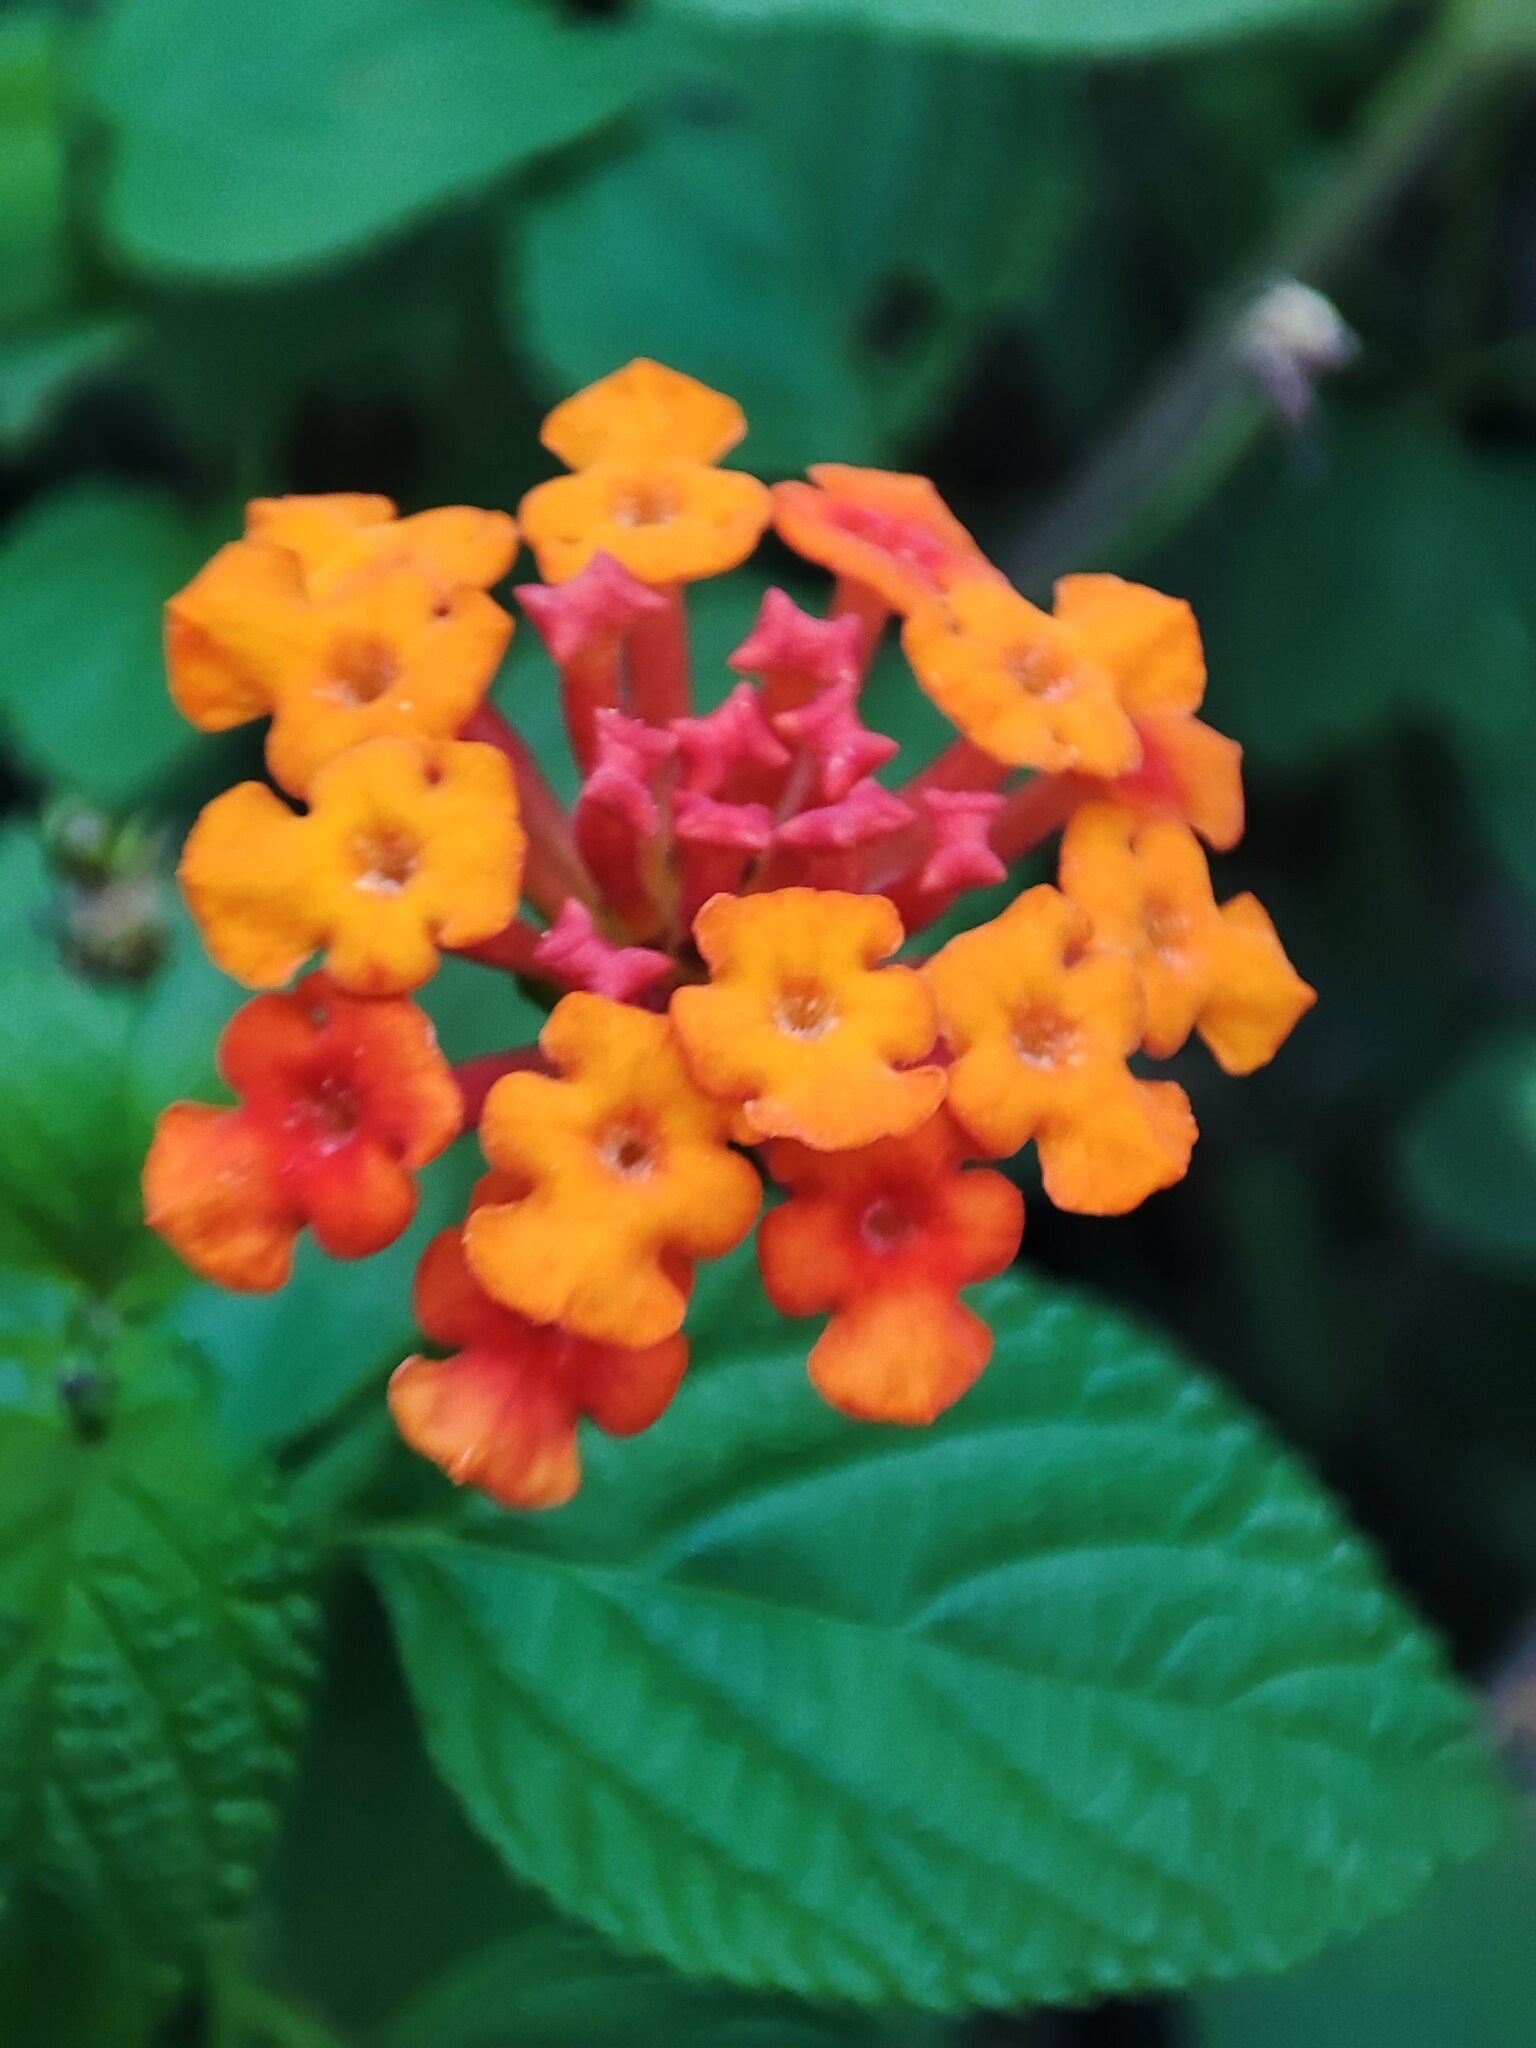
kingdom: Plantae
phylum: Tracheophyta
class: Magnoliopsida
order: Lamiales
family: Verbenaceae
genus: Lantana
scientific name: Lantana camara
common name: Lantana
